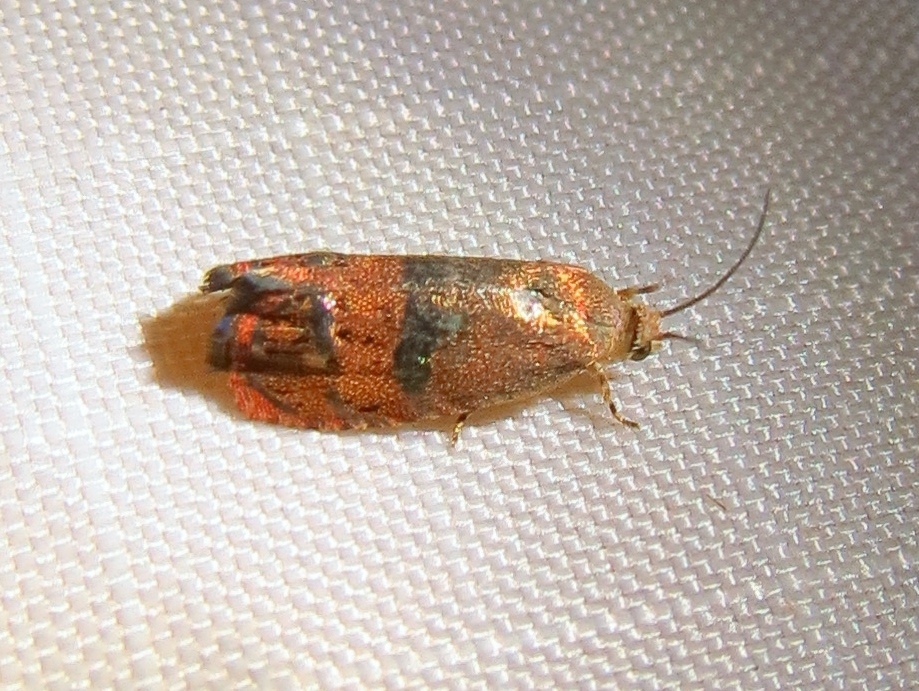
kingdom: Animalia
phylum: Arthropoda
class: Insecta
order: Lepidoptera
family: Tortricidae
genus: Cydia
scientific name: Cydia latiferreana
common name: Filbertworm moth
